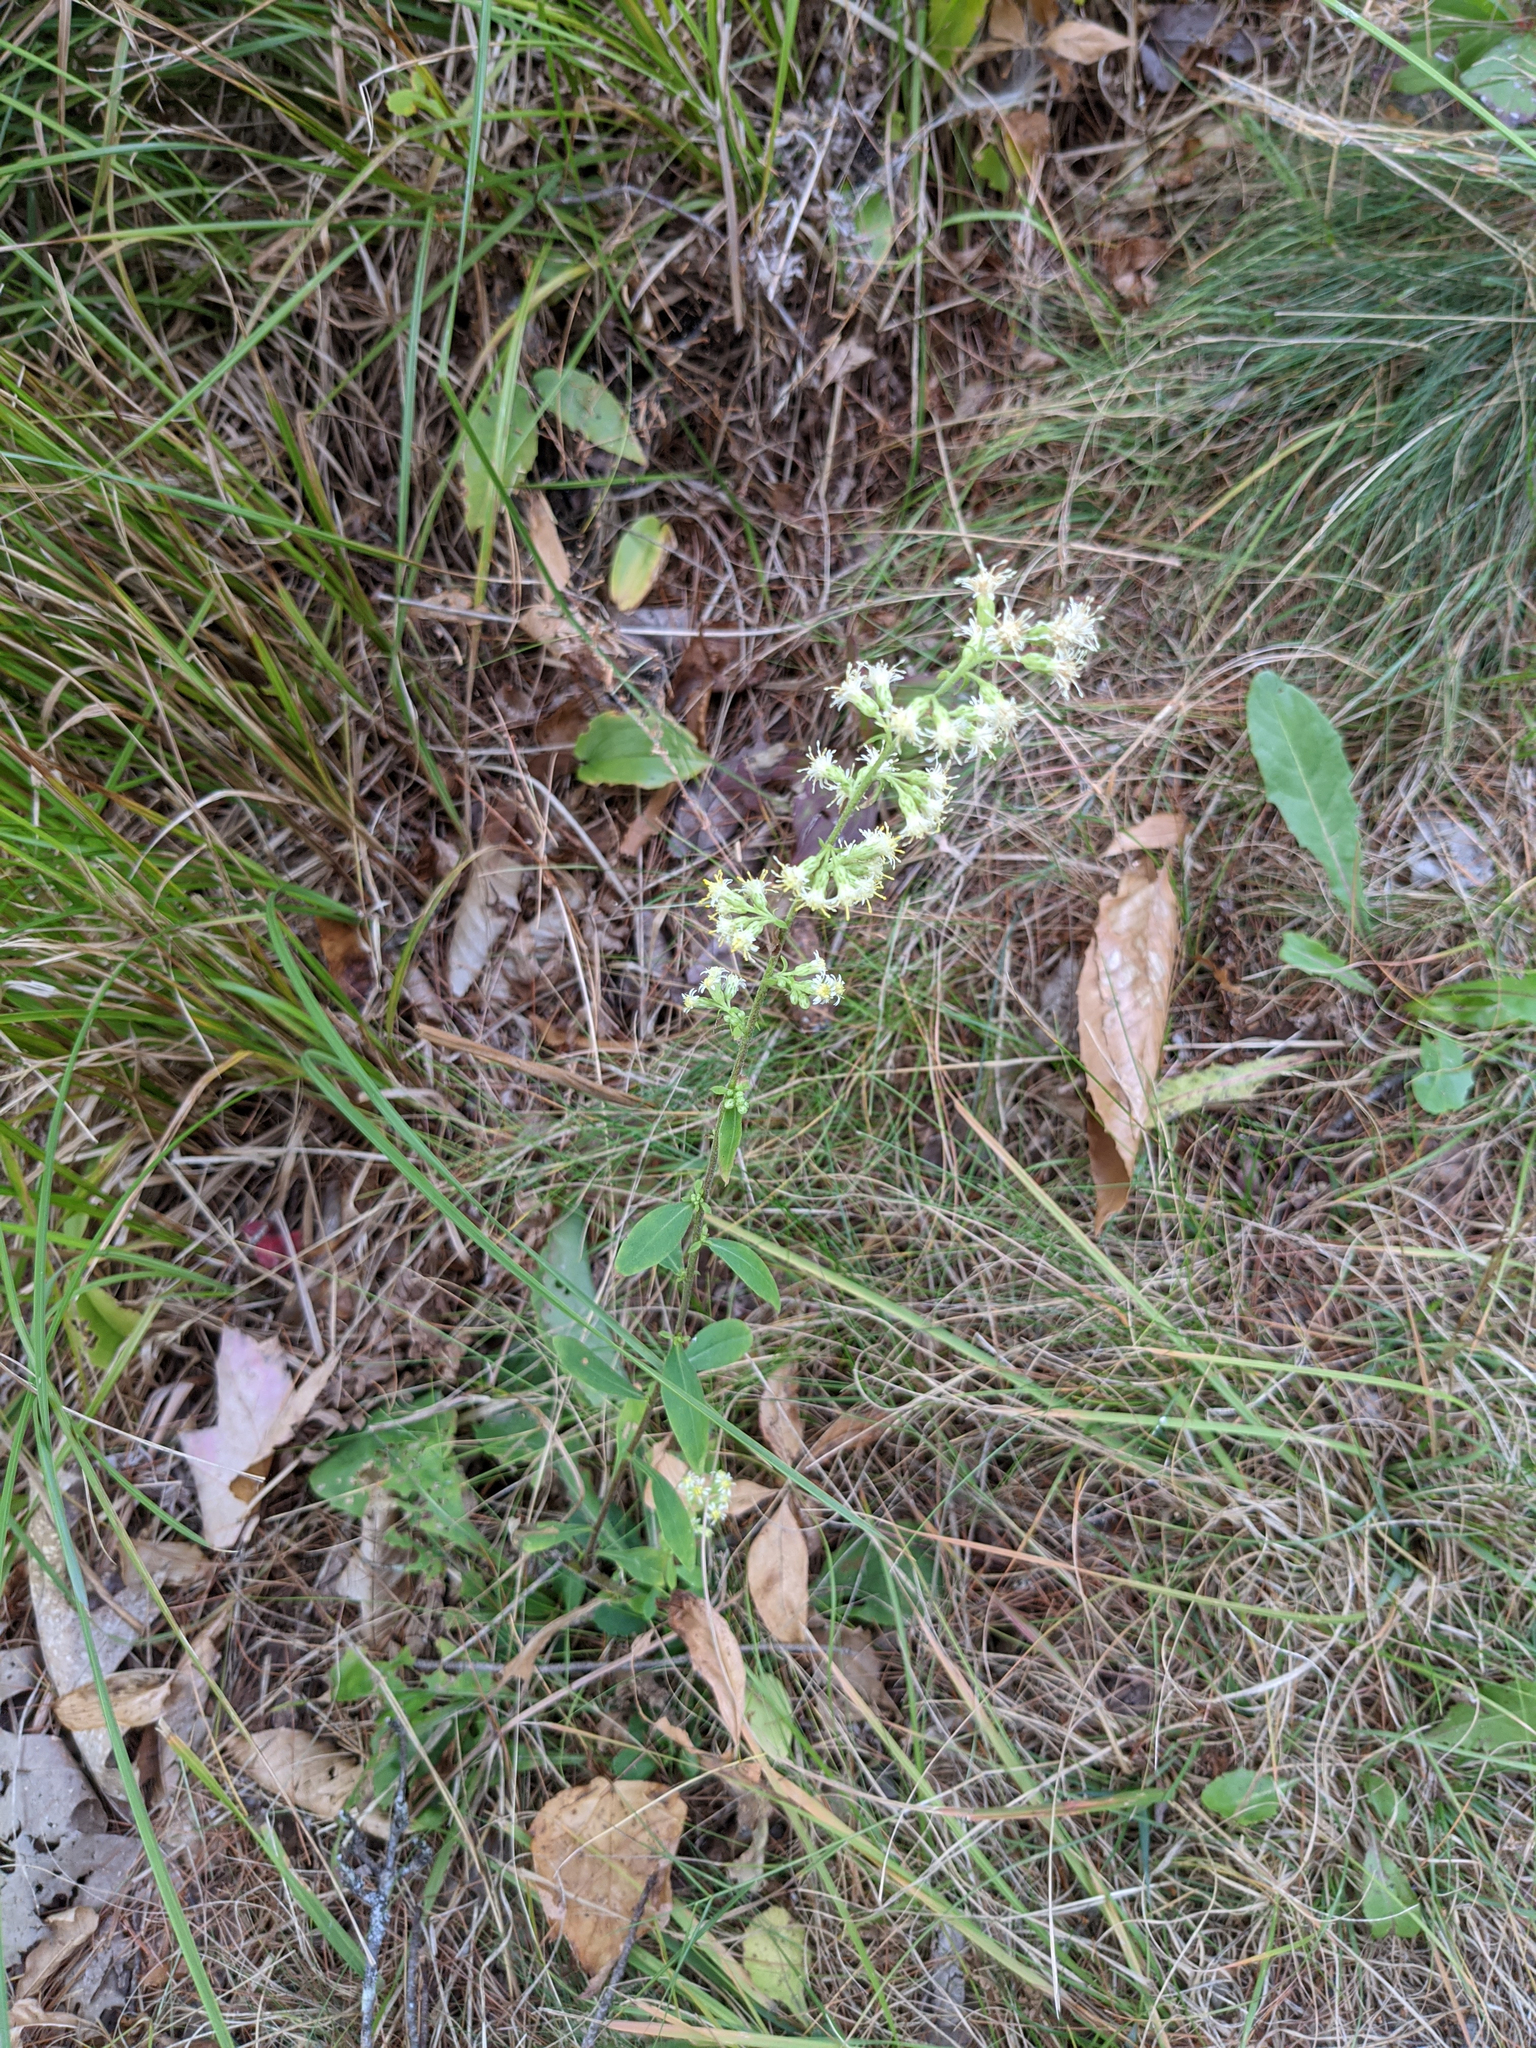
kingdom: Plantae
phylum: Tracheophyta
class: Magnoliopsida
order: Asterales
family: Asteraceae
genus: Solidago
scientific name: Solidago bicolor
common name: Silverrod
